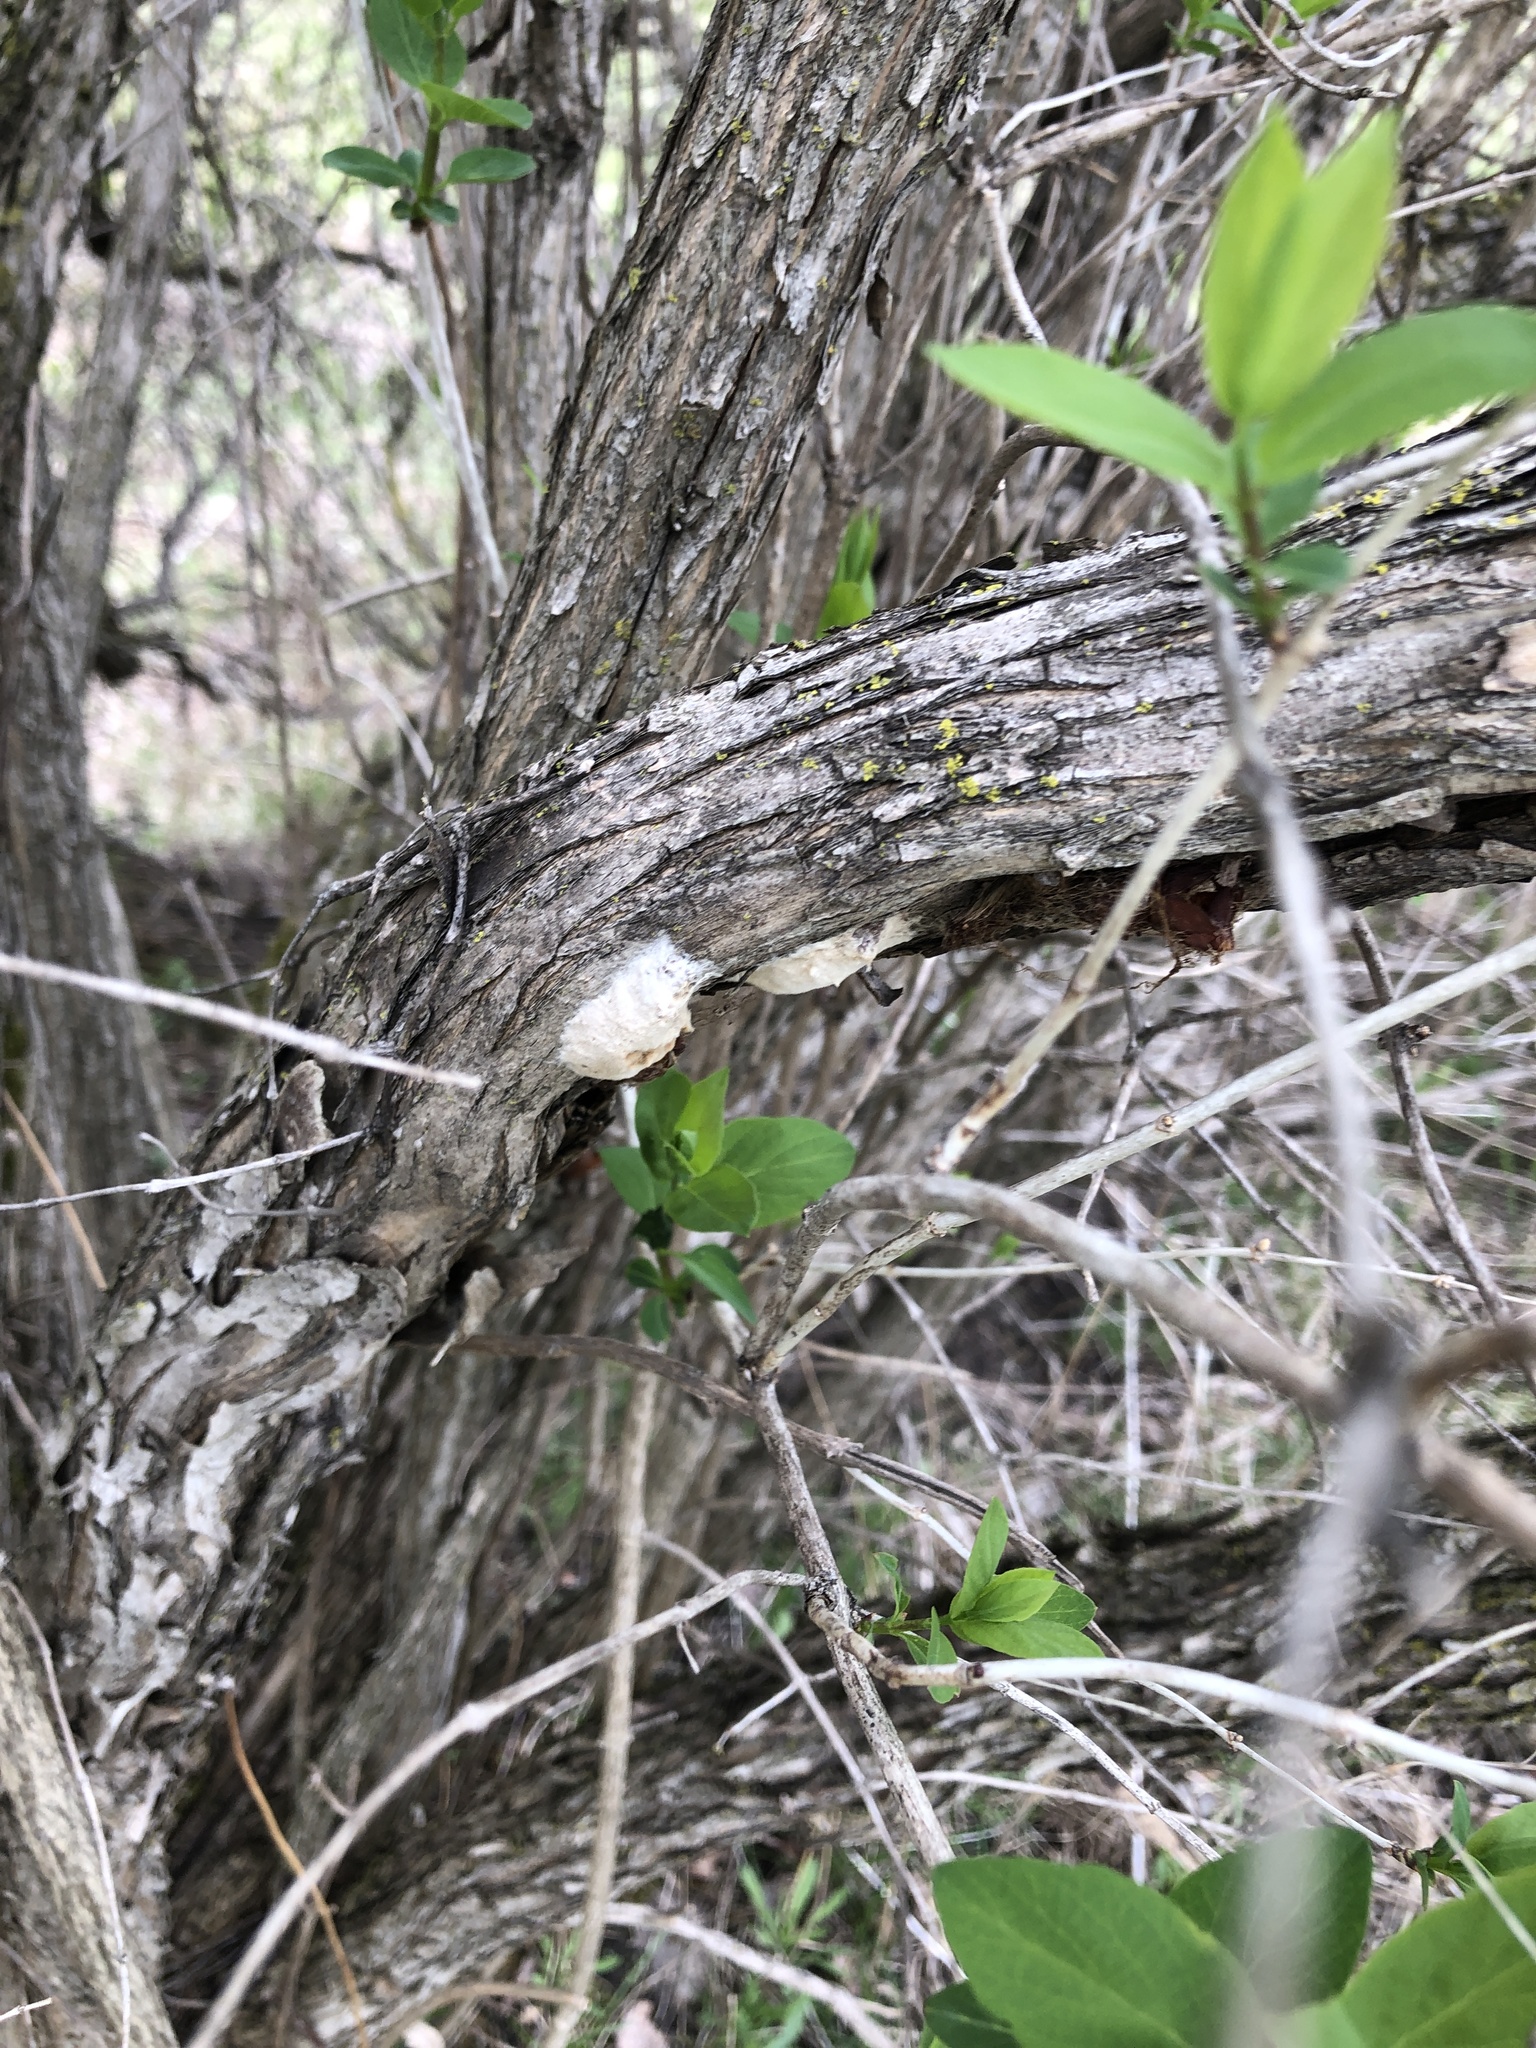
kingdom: Animalia
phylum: Arthropoda
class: Insecta
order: Lepidoptera
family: Erebidae
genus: Lymantria
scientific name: Lymantria dispar
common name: Gypsy moth
